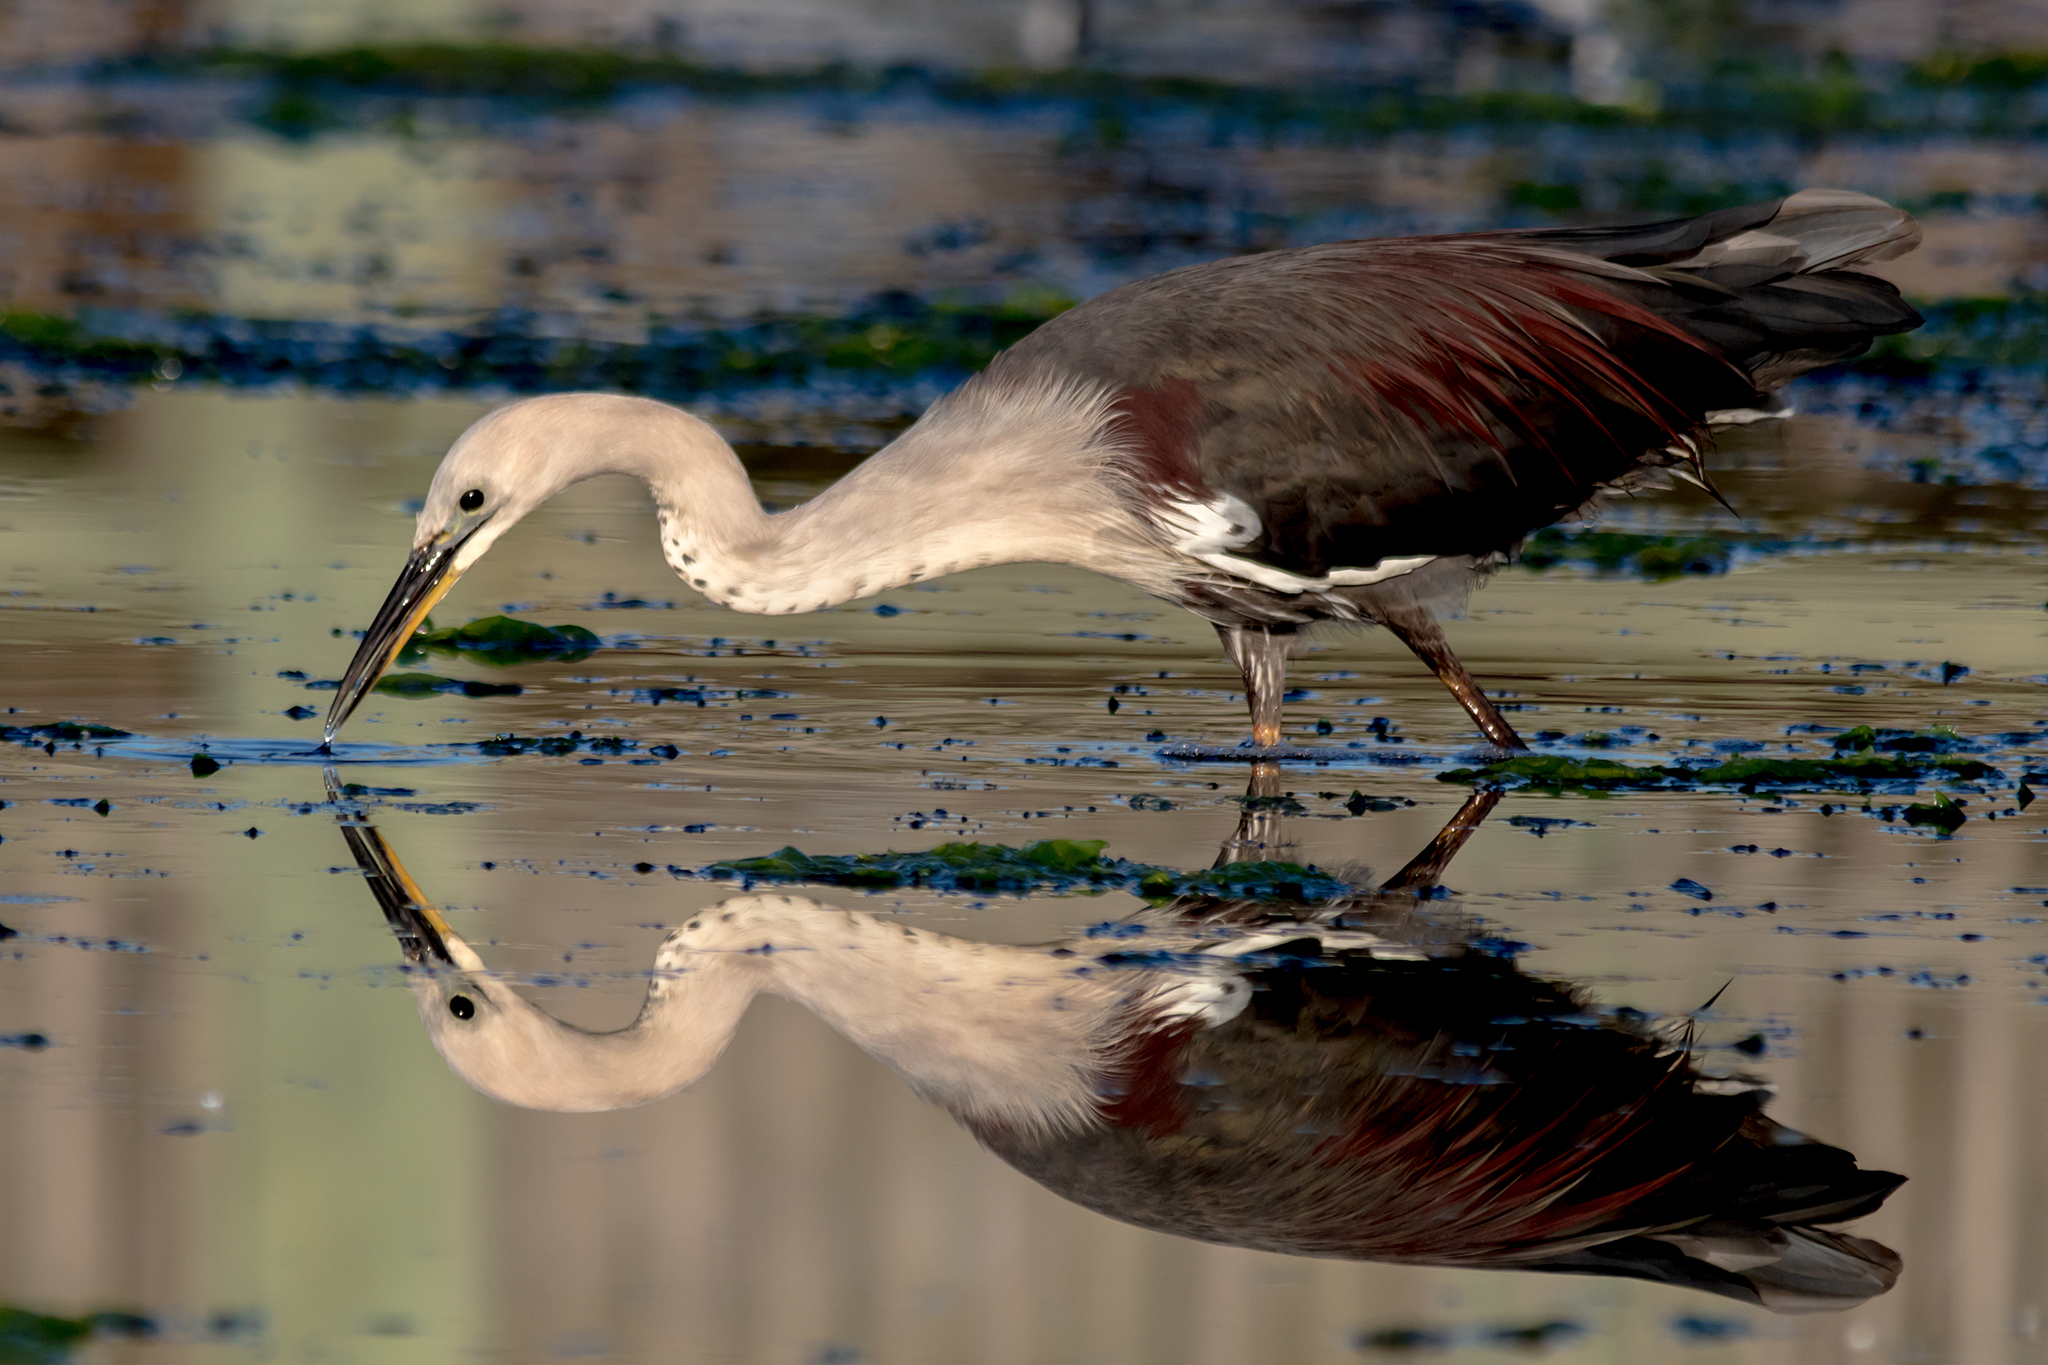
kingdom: Animalia
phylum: Chordata
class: Aves
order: Pelecaniformes
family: Ardeidae
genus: Ardea
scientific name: Ardea pacifica
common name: White-necked heron
